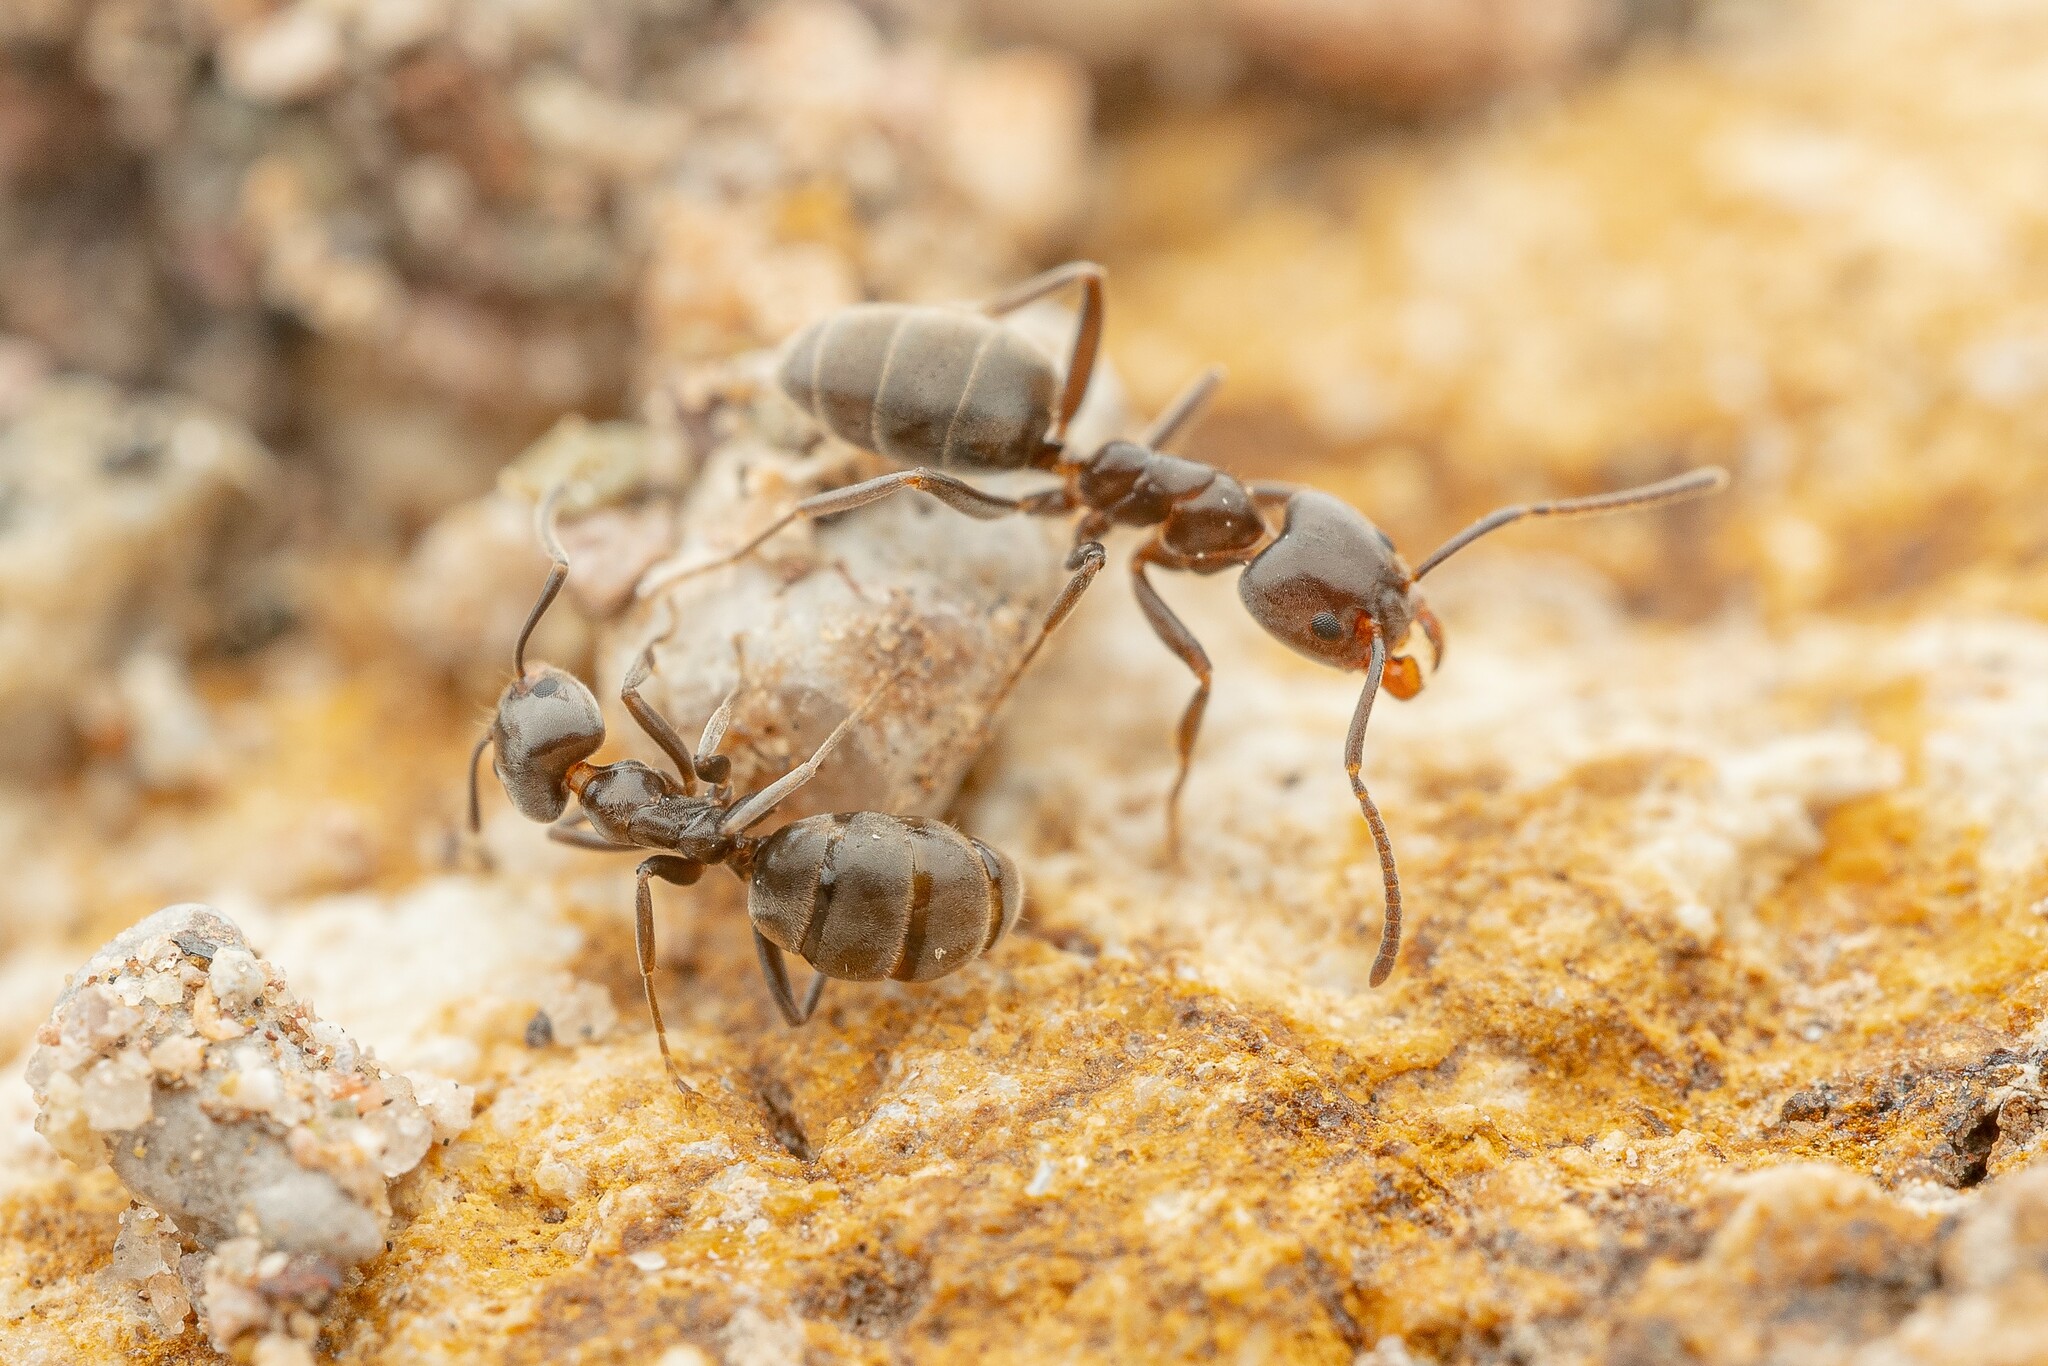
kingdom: Animalia
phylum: Arthropoda
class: Insecta
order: Hymenoptera
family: Formicidae
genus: Liometopum
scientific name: Liometopum luctuosum
